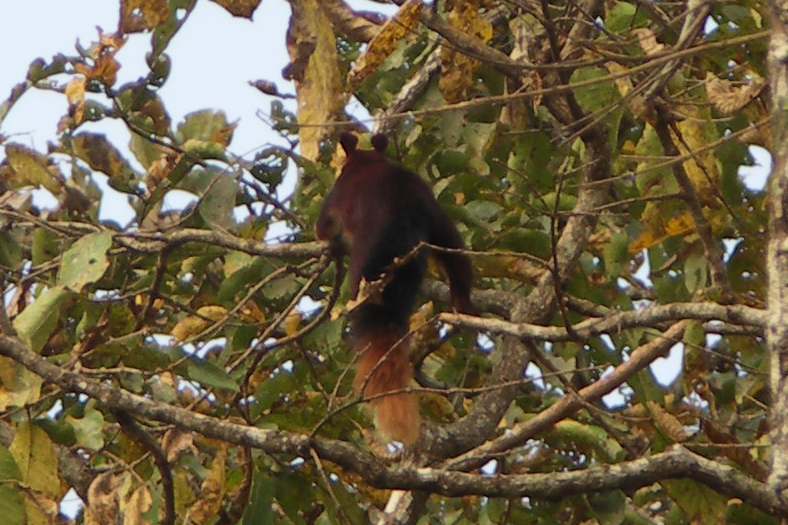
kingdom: Animalia
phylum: Chordata
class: Mammalia
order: Rodentia
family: Sciuridae
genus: Ratufa
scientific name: Ratufa indica
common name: Indian giant squirrel
